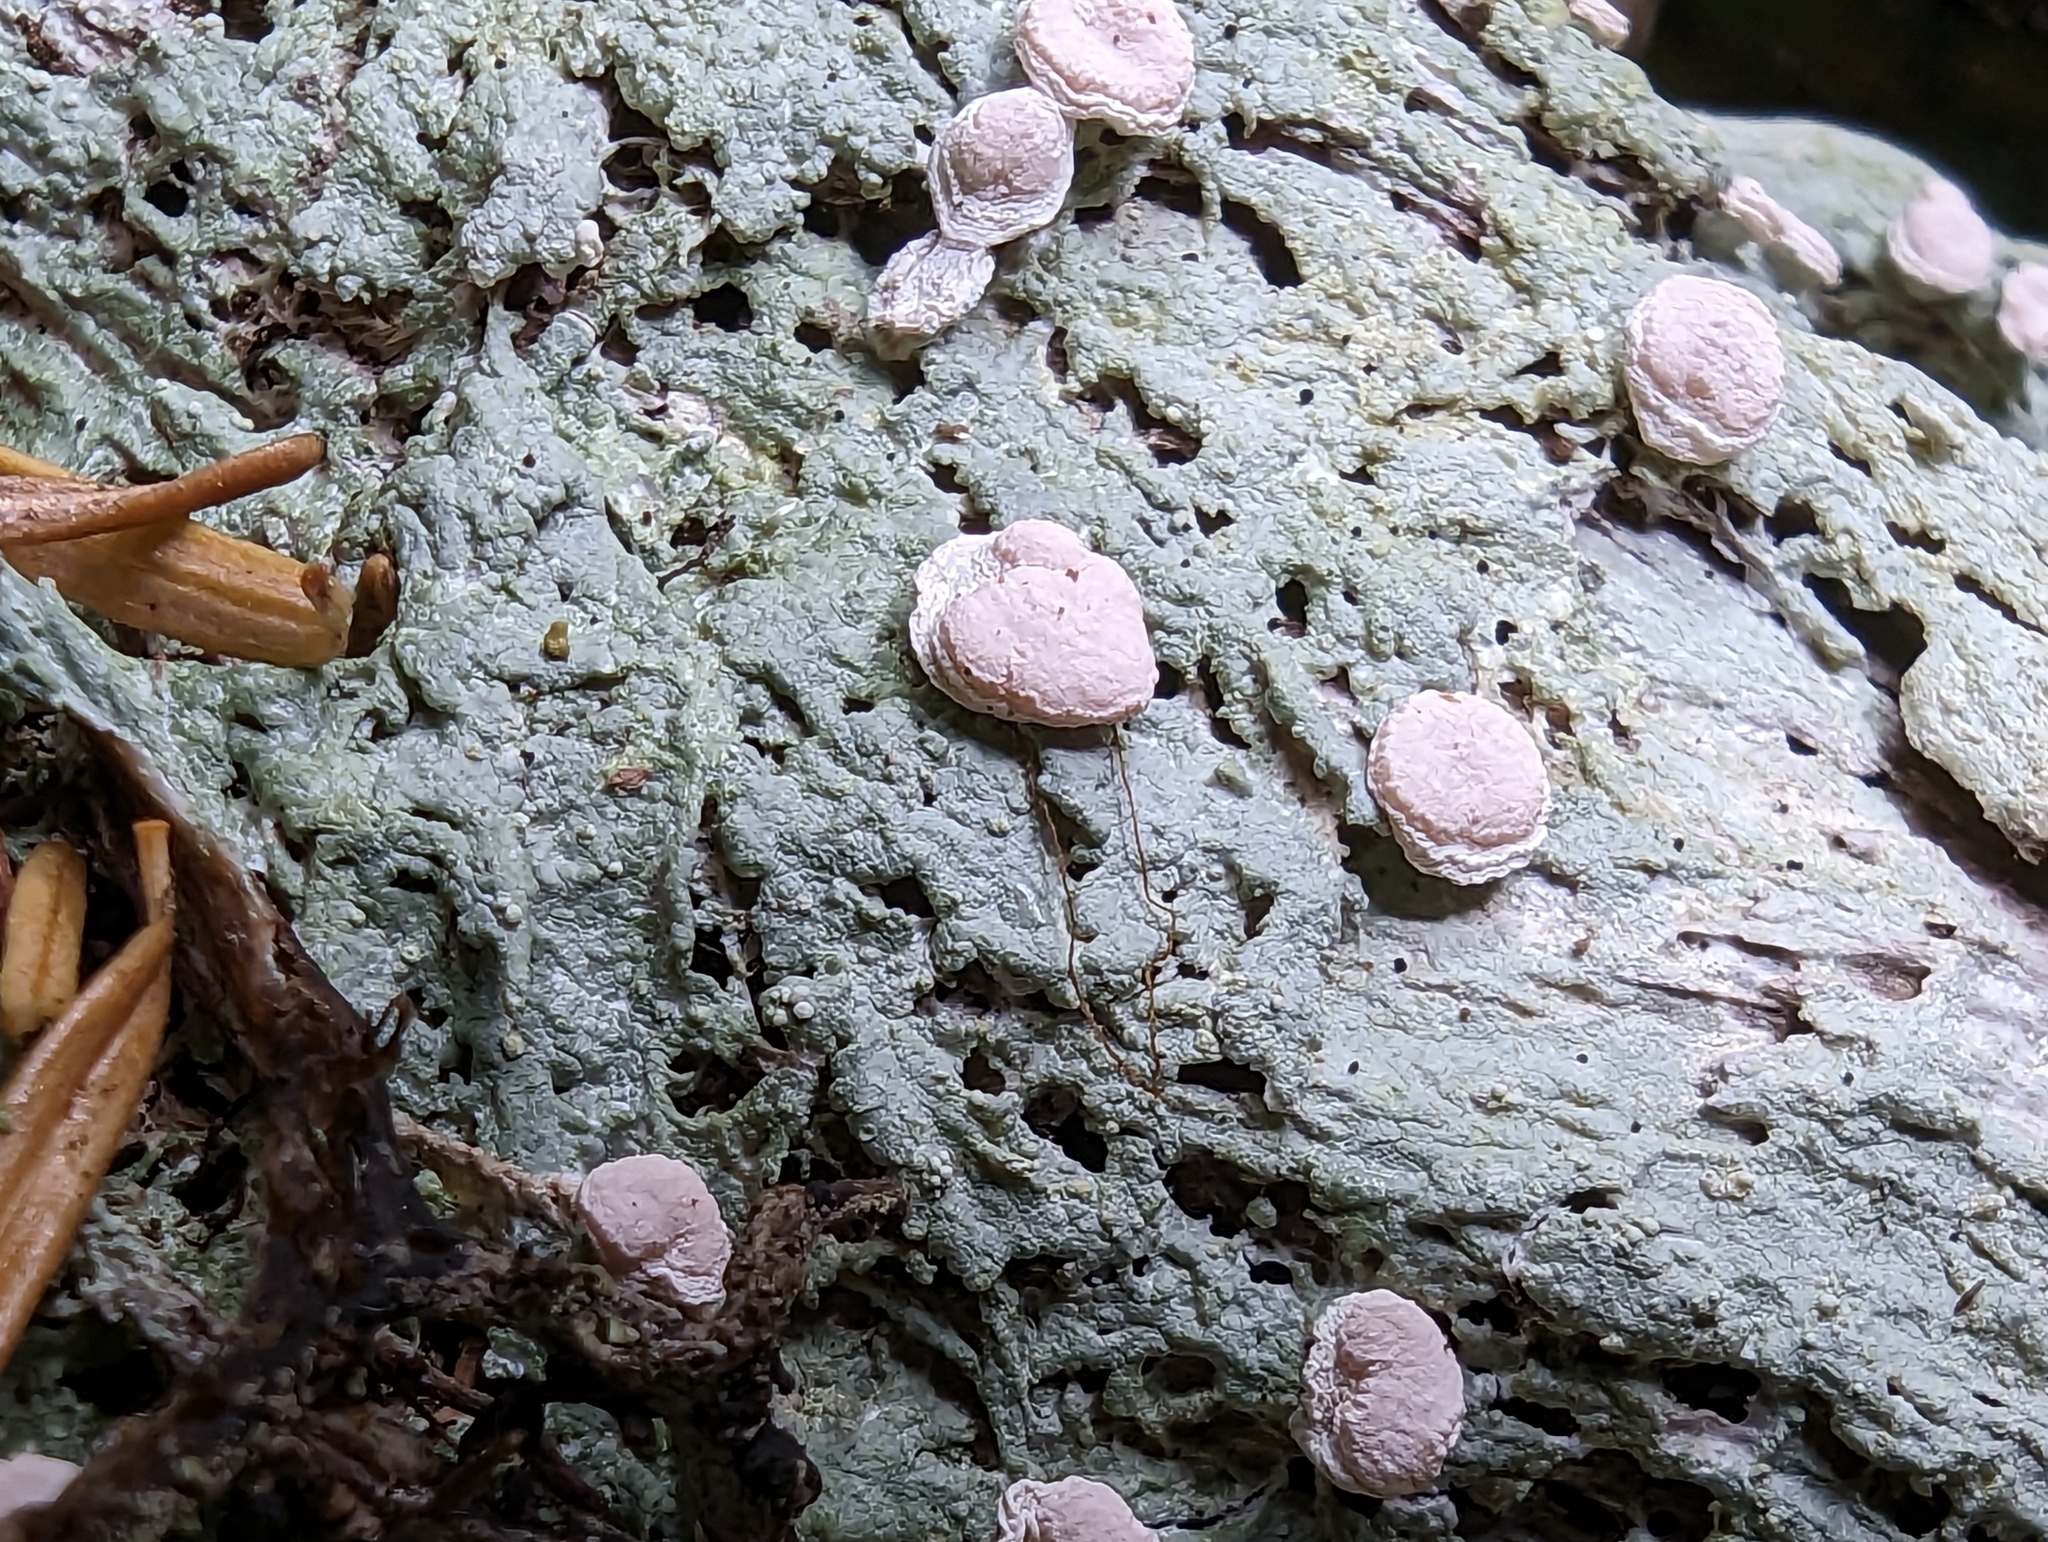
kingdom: Fungi
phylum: Ascomycota
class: Lecanoromycetes
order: Pertusariales
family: Icmadophilaceae
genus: Icmadophila
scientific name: Icmadophila ericetorum
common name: Candy lichen
